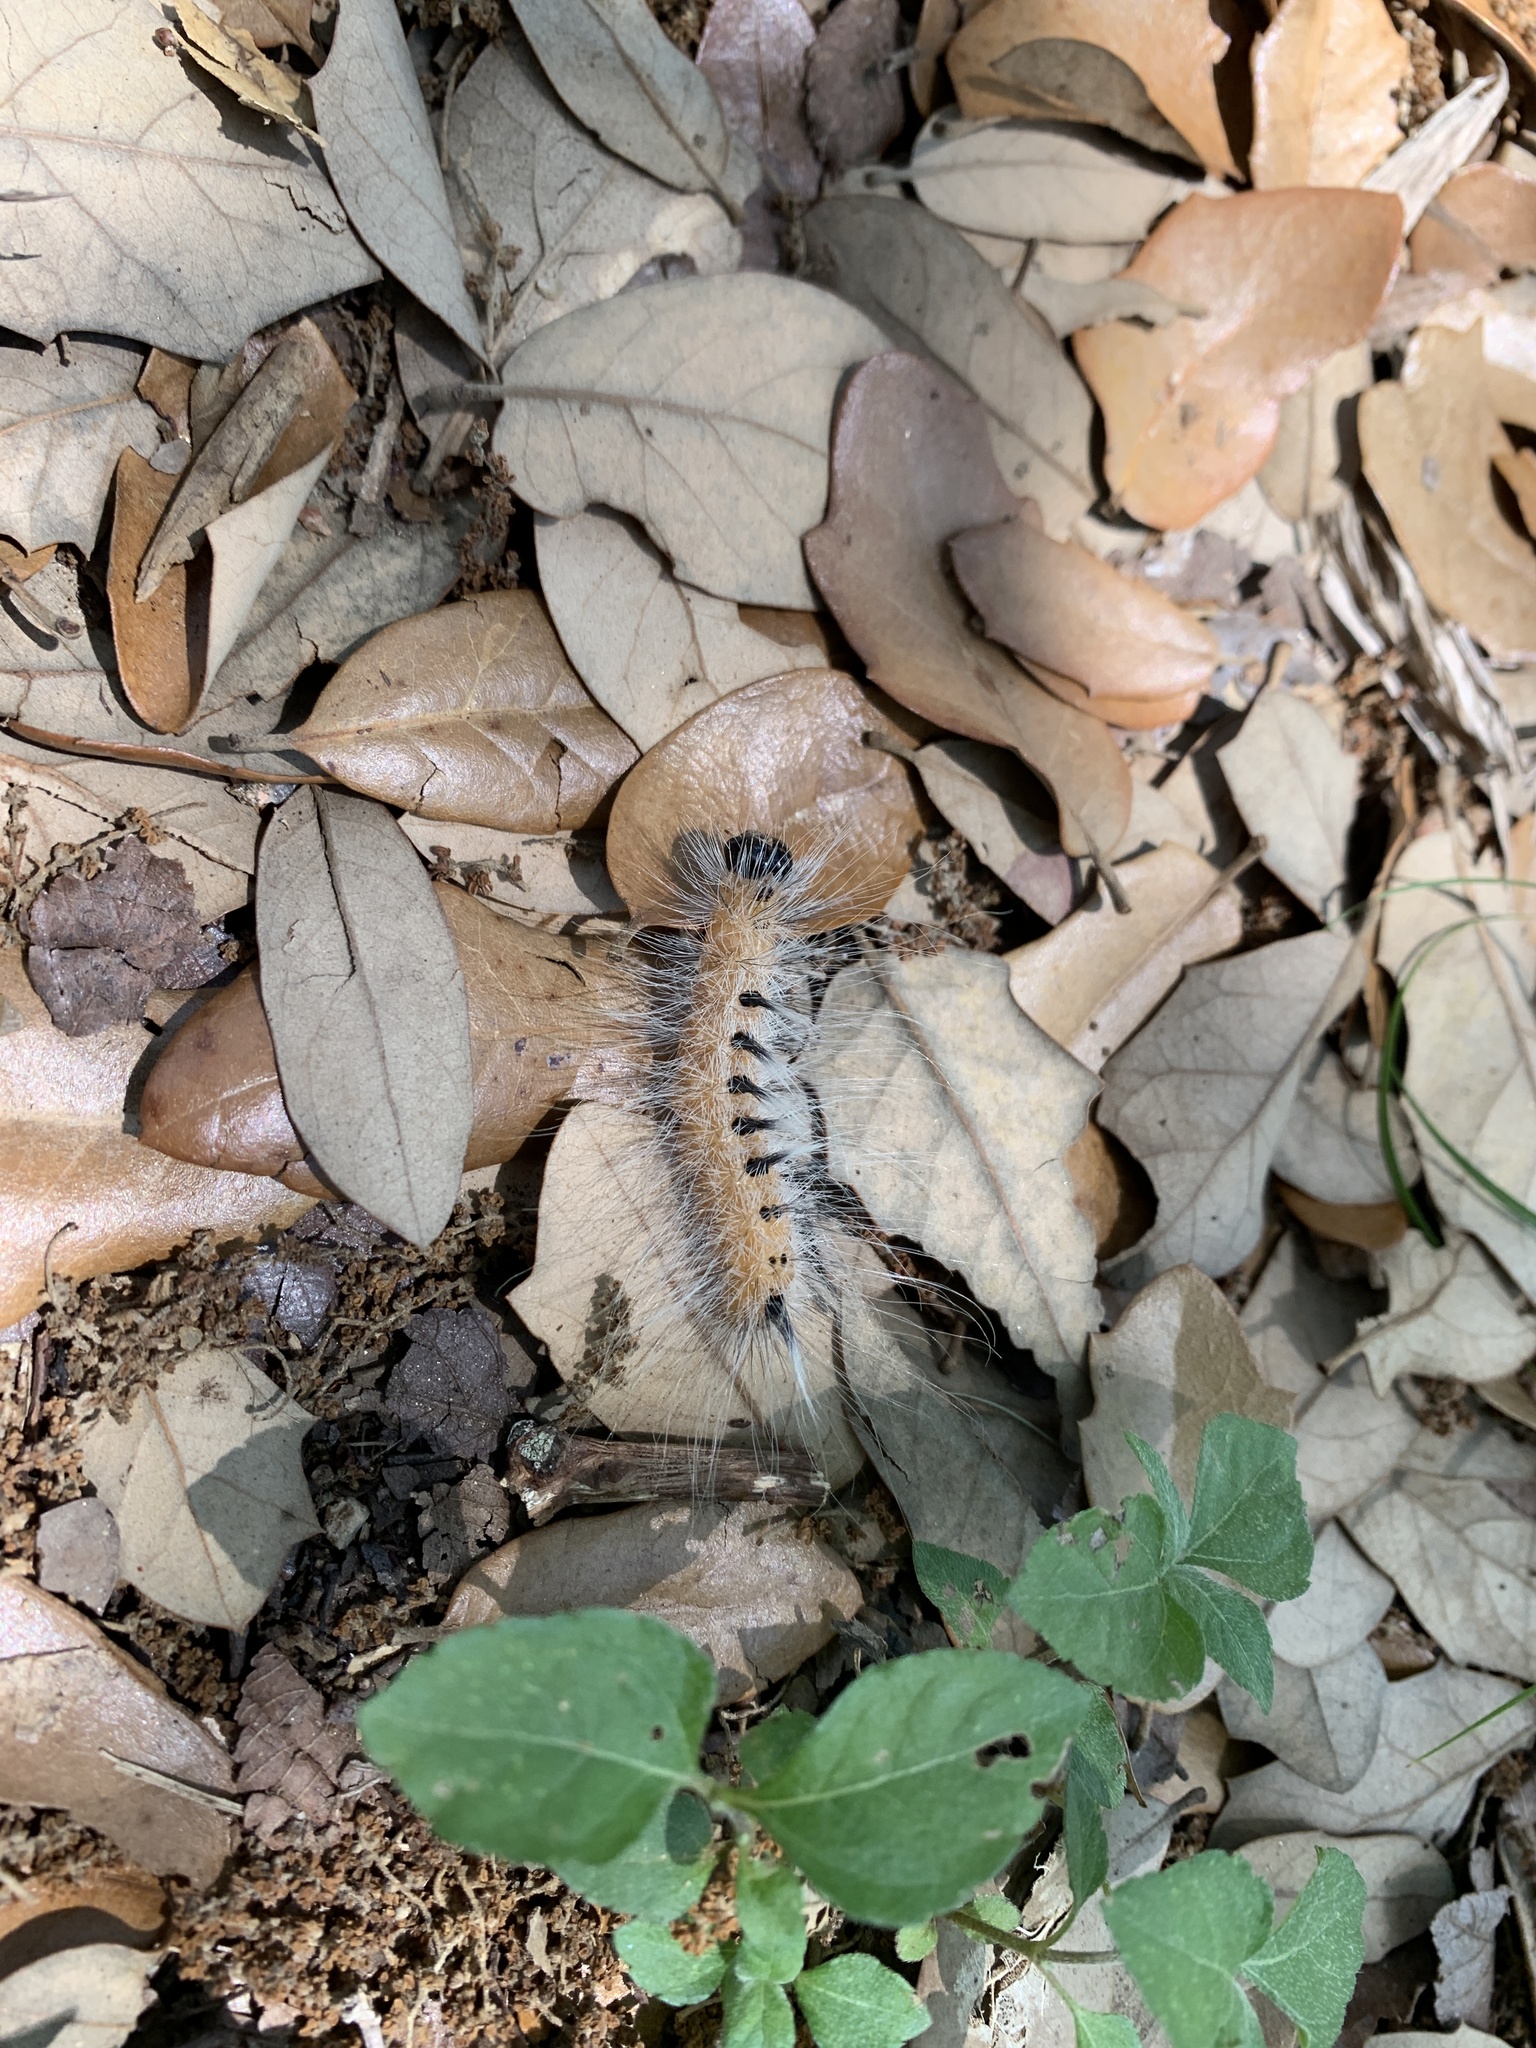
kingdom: Animalia
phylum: Arthropoda
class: Insecta
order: Lepidoptera
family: Noctuidae
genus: Acronicta
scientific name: Acronicta rubricoma
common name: Hackberry dagger
